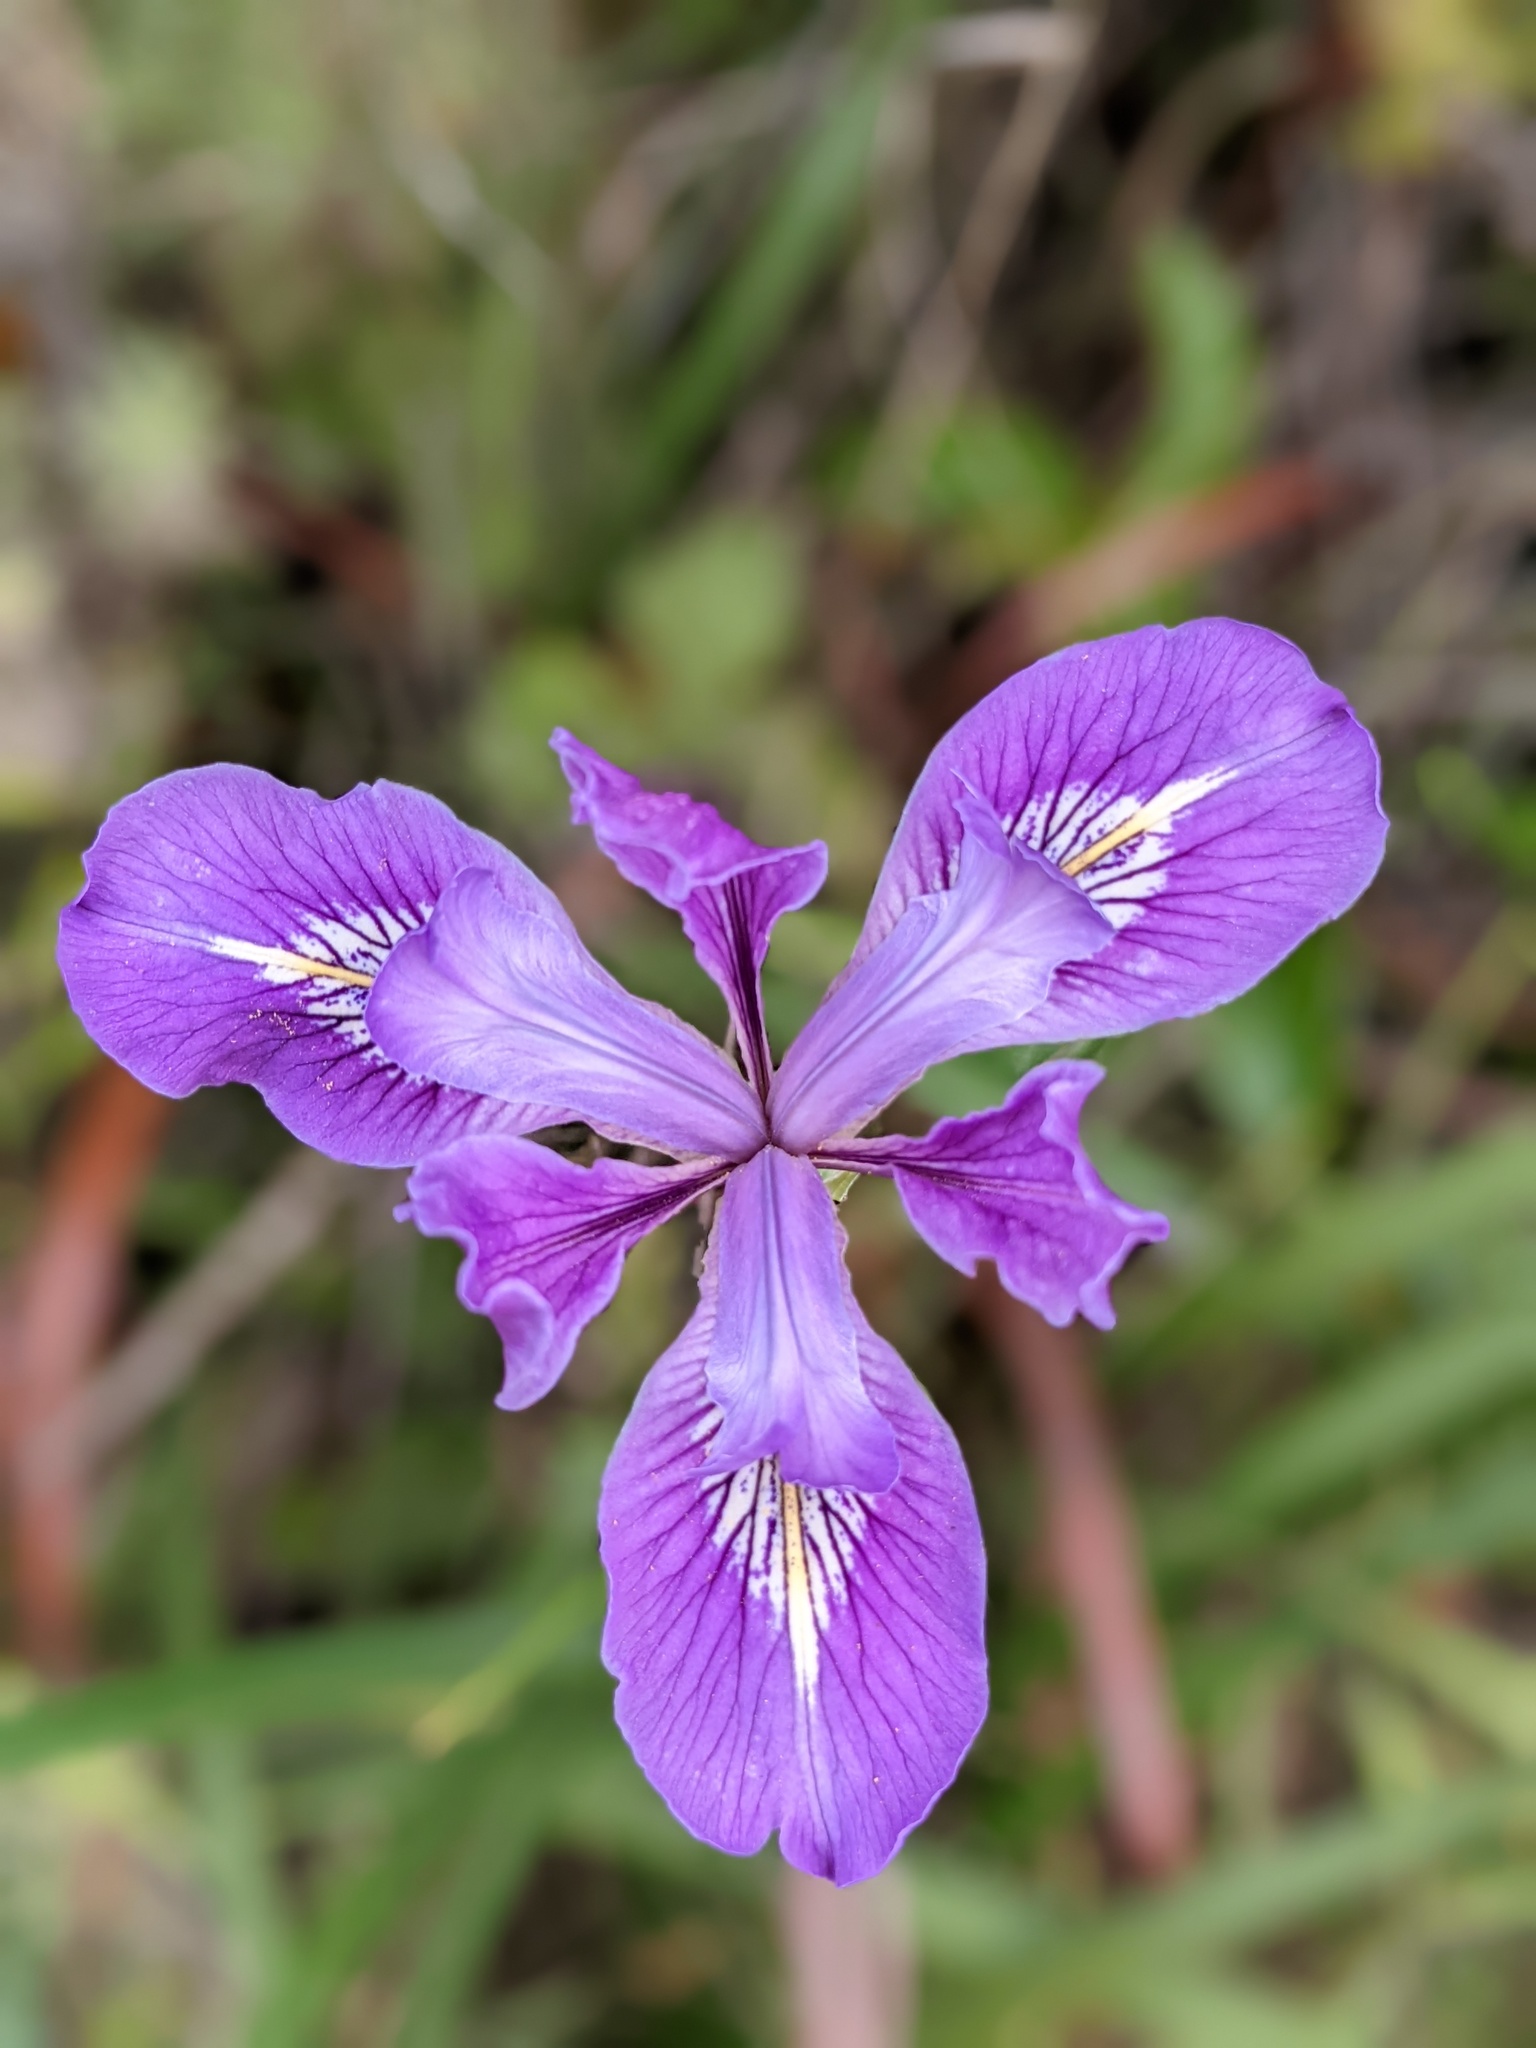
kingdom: Plantae
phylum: Tracheophyta
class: Liliopsida
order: Asparagales
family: Iridaceae
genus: Iris
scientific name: Iris douglasiana
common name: Marin iris
